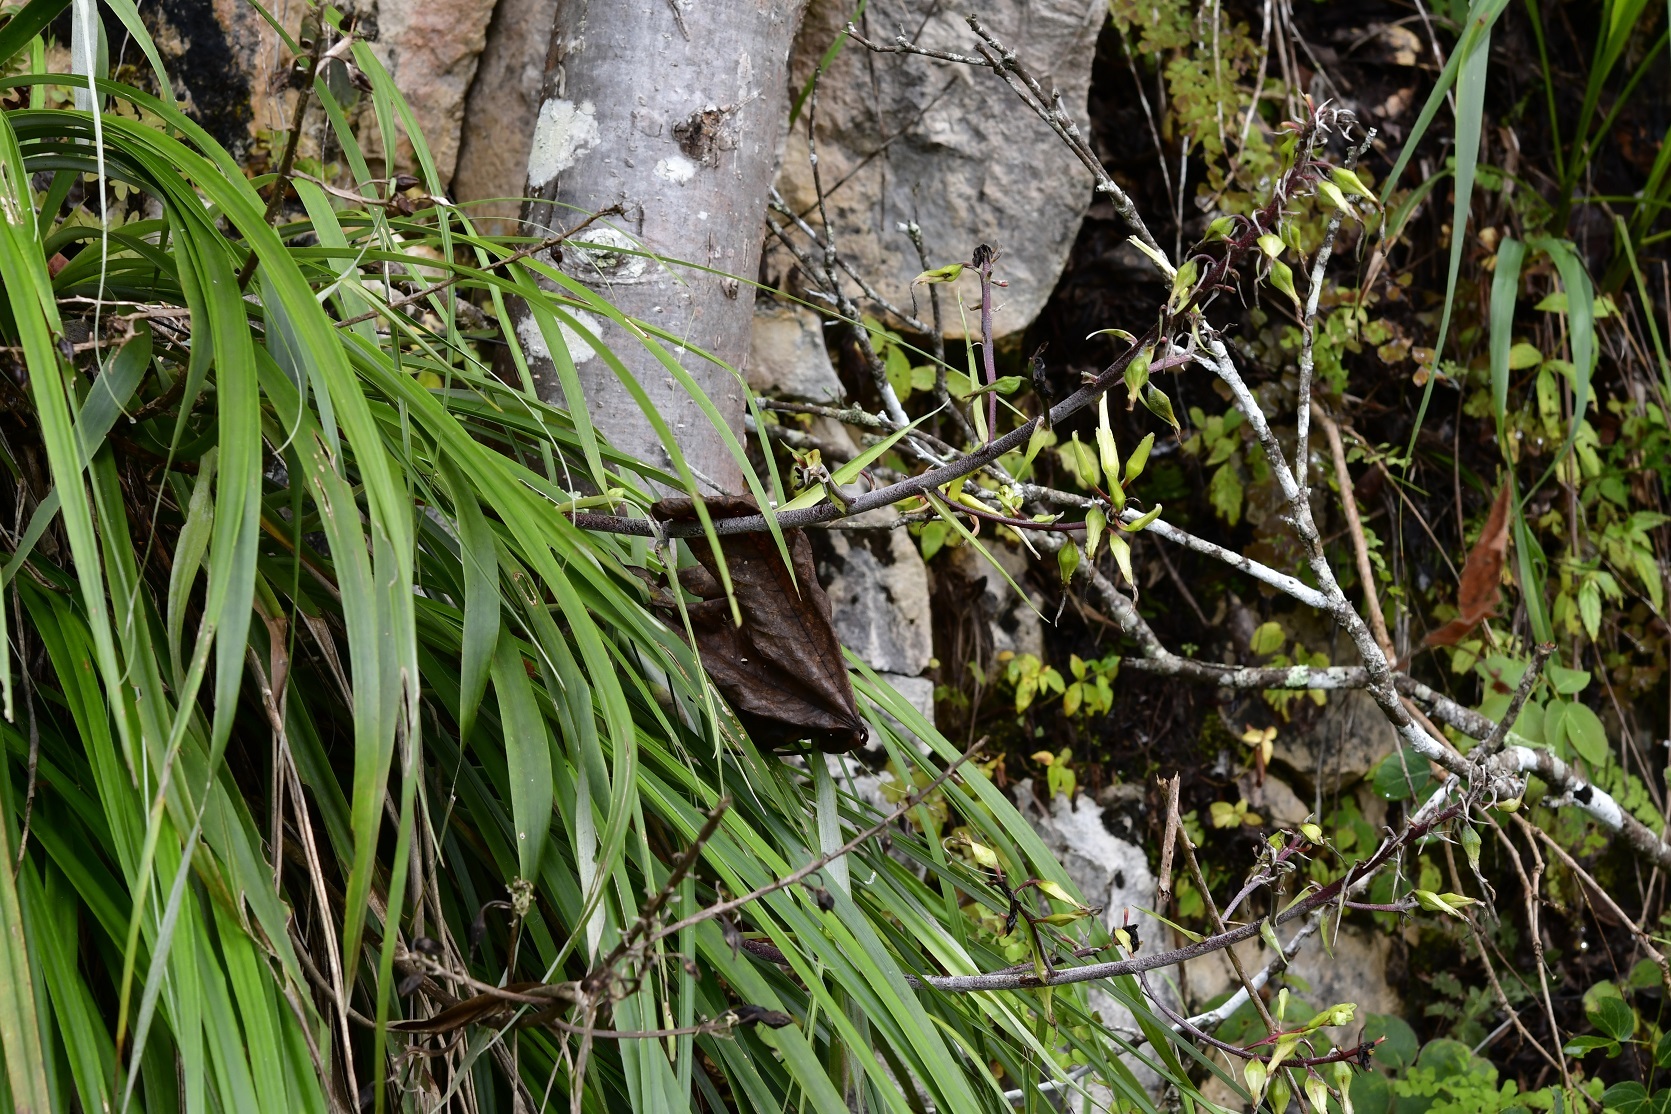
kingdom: Plantae
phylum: Tracheophyta
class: Liliopsida
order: Poales
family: Bromeliaceae
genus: Pitcairnia
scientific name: Pitcairnia breedlovei
